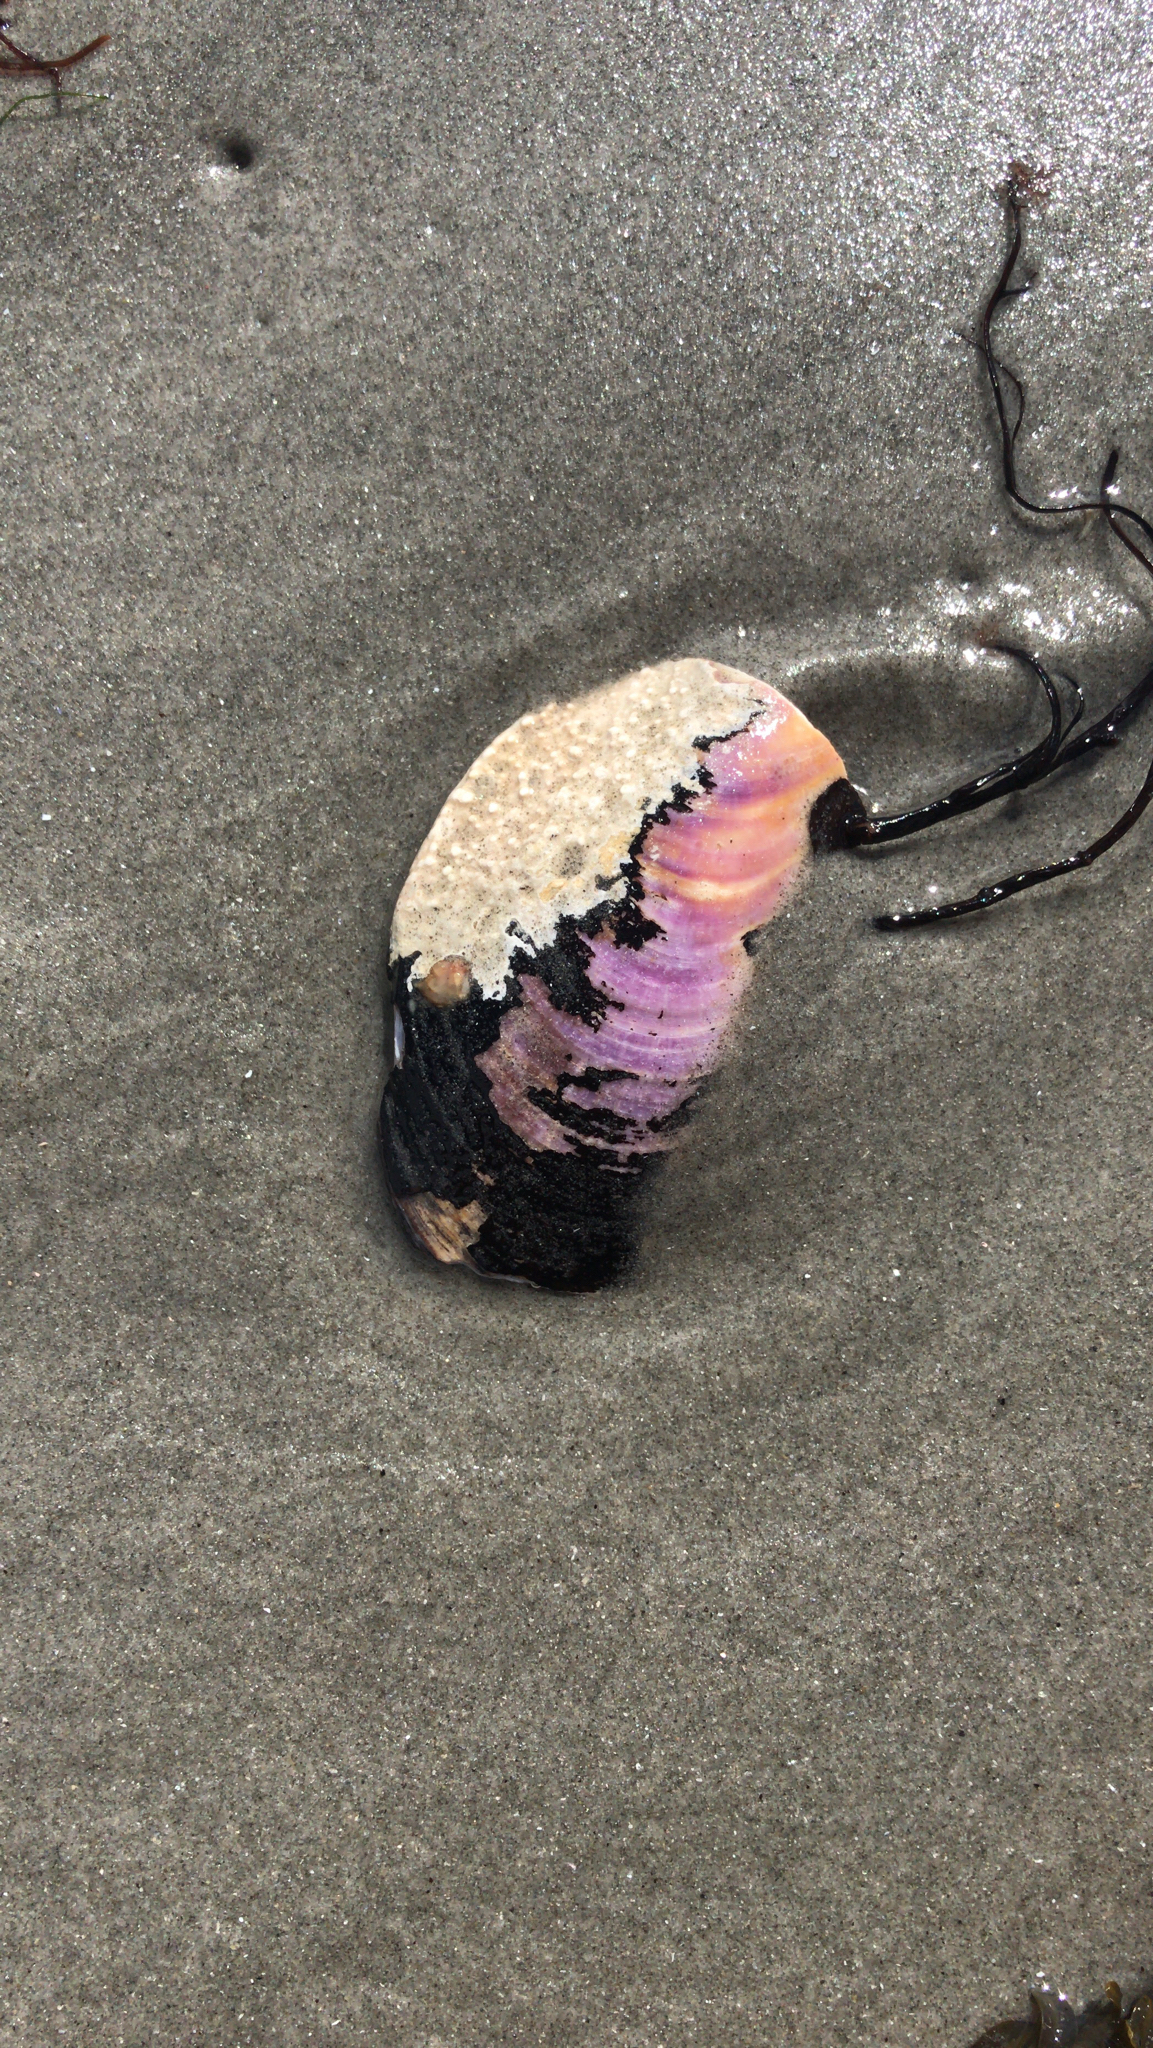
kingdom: Animalia
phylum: Mollusca
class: Bivalvia
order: Mytilida
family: Mytilidae
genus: Modiolus
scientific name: Modiolus modiolus
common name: Horse-mussel
